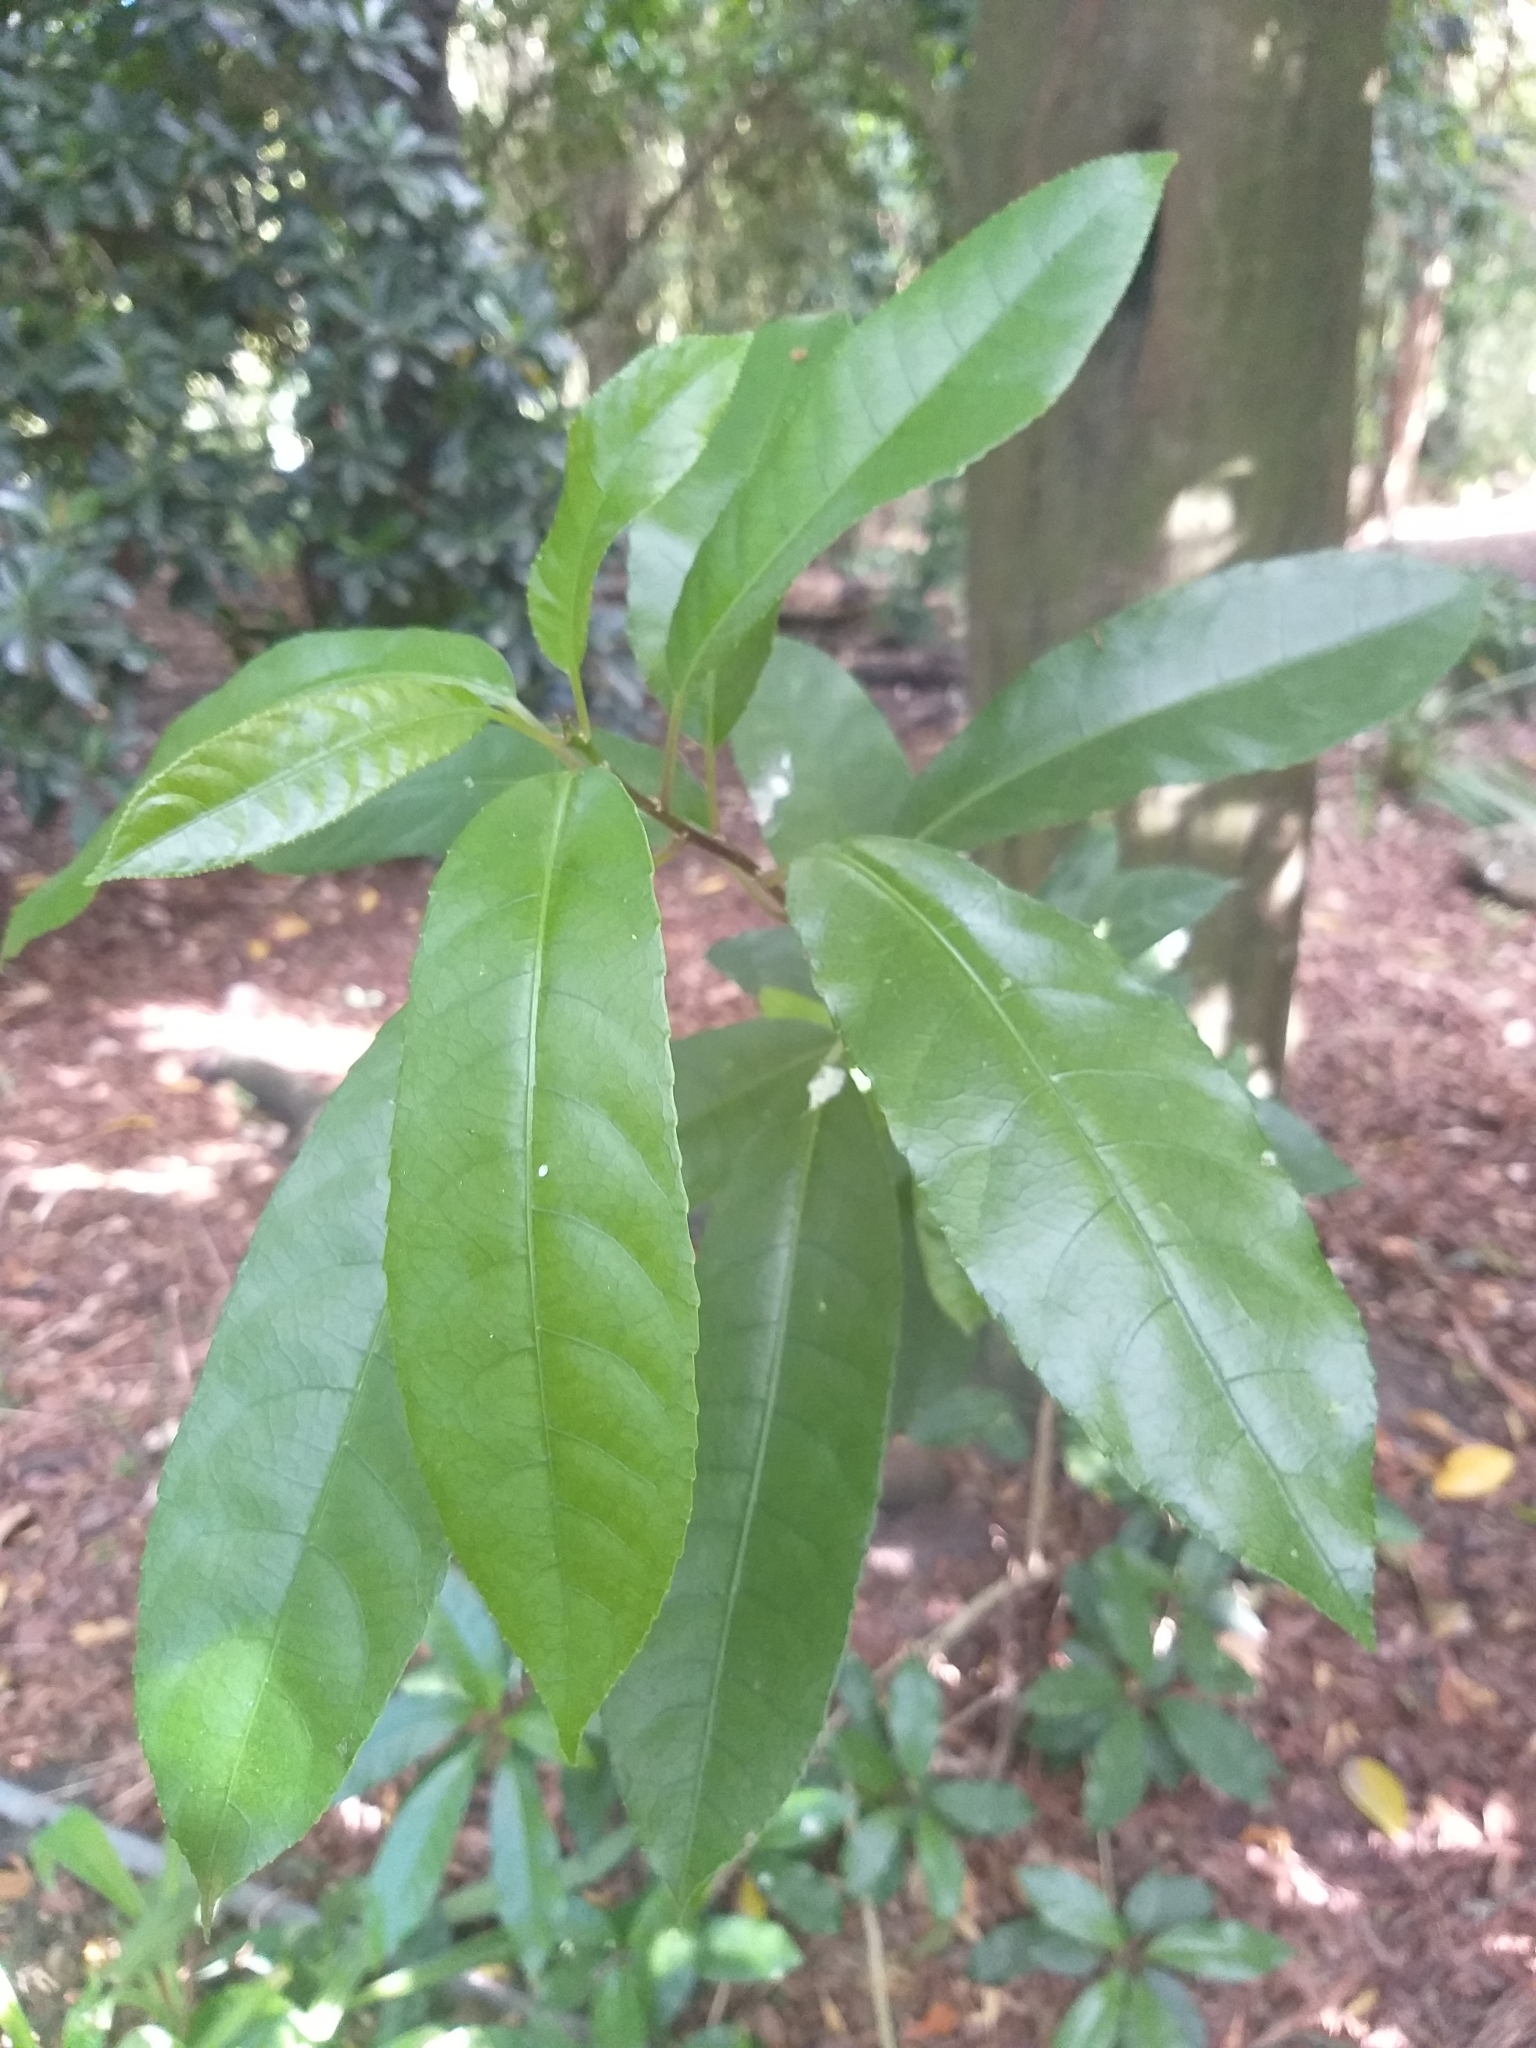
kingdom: Plantae
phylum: Tracheophyta
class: Magnoliopsida
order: Malpighiales
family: Violaceae
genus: Melicytus
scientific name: Melicytus ramiflorus
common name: Mahoe
